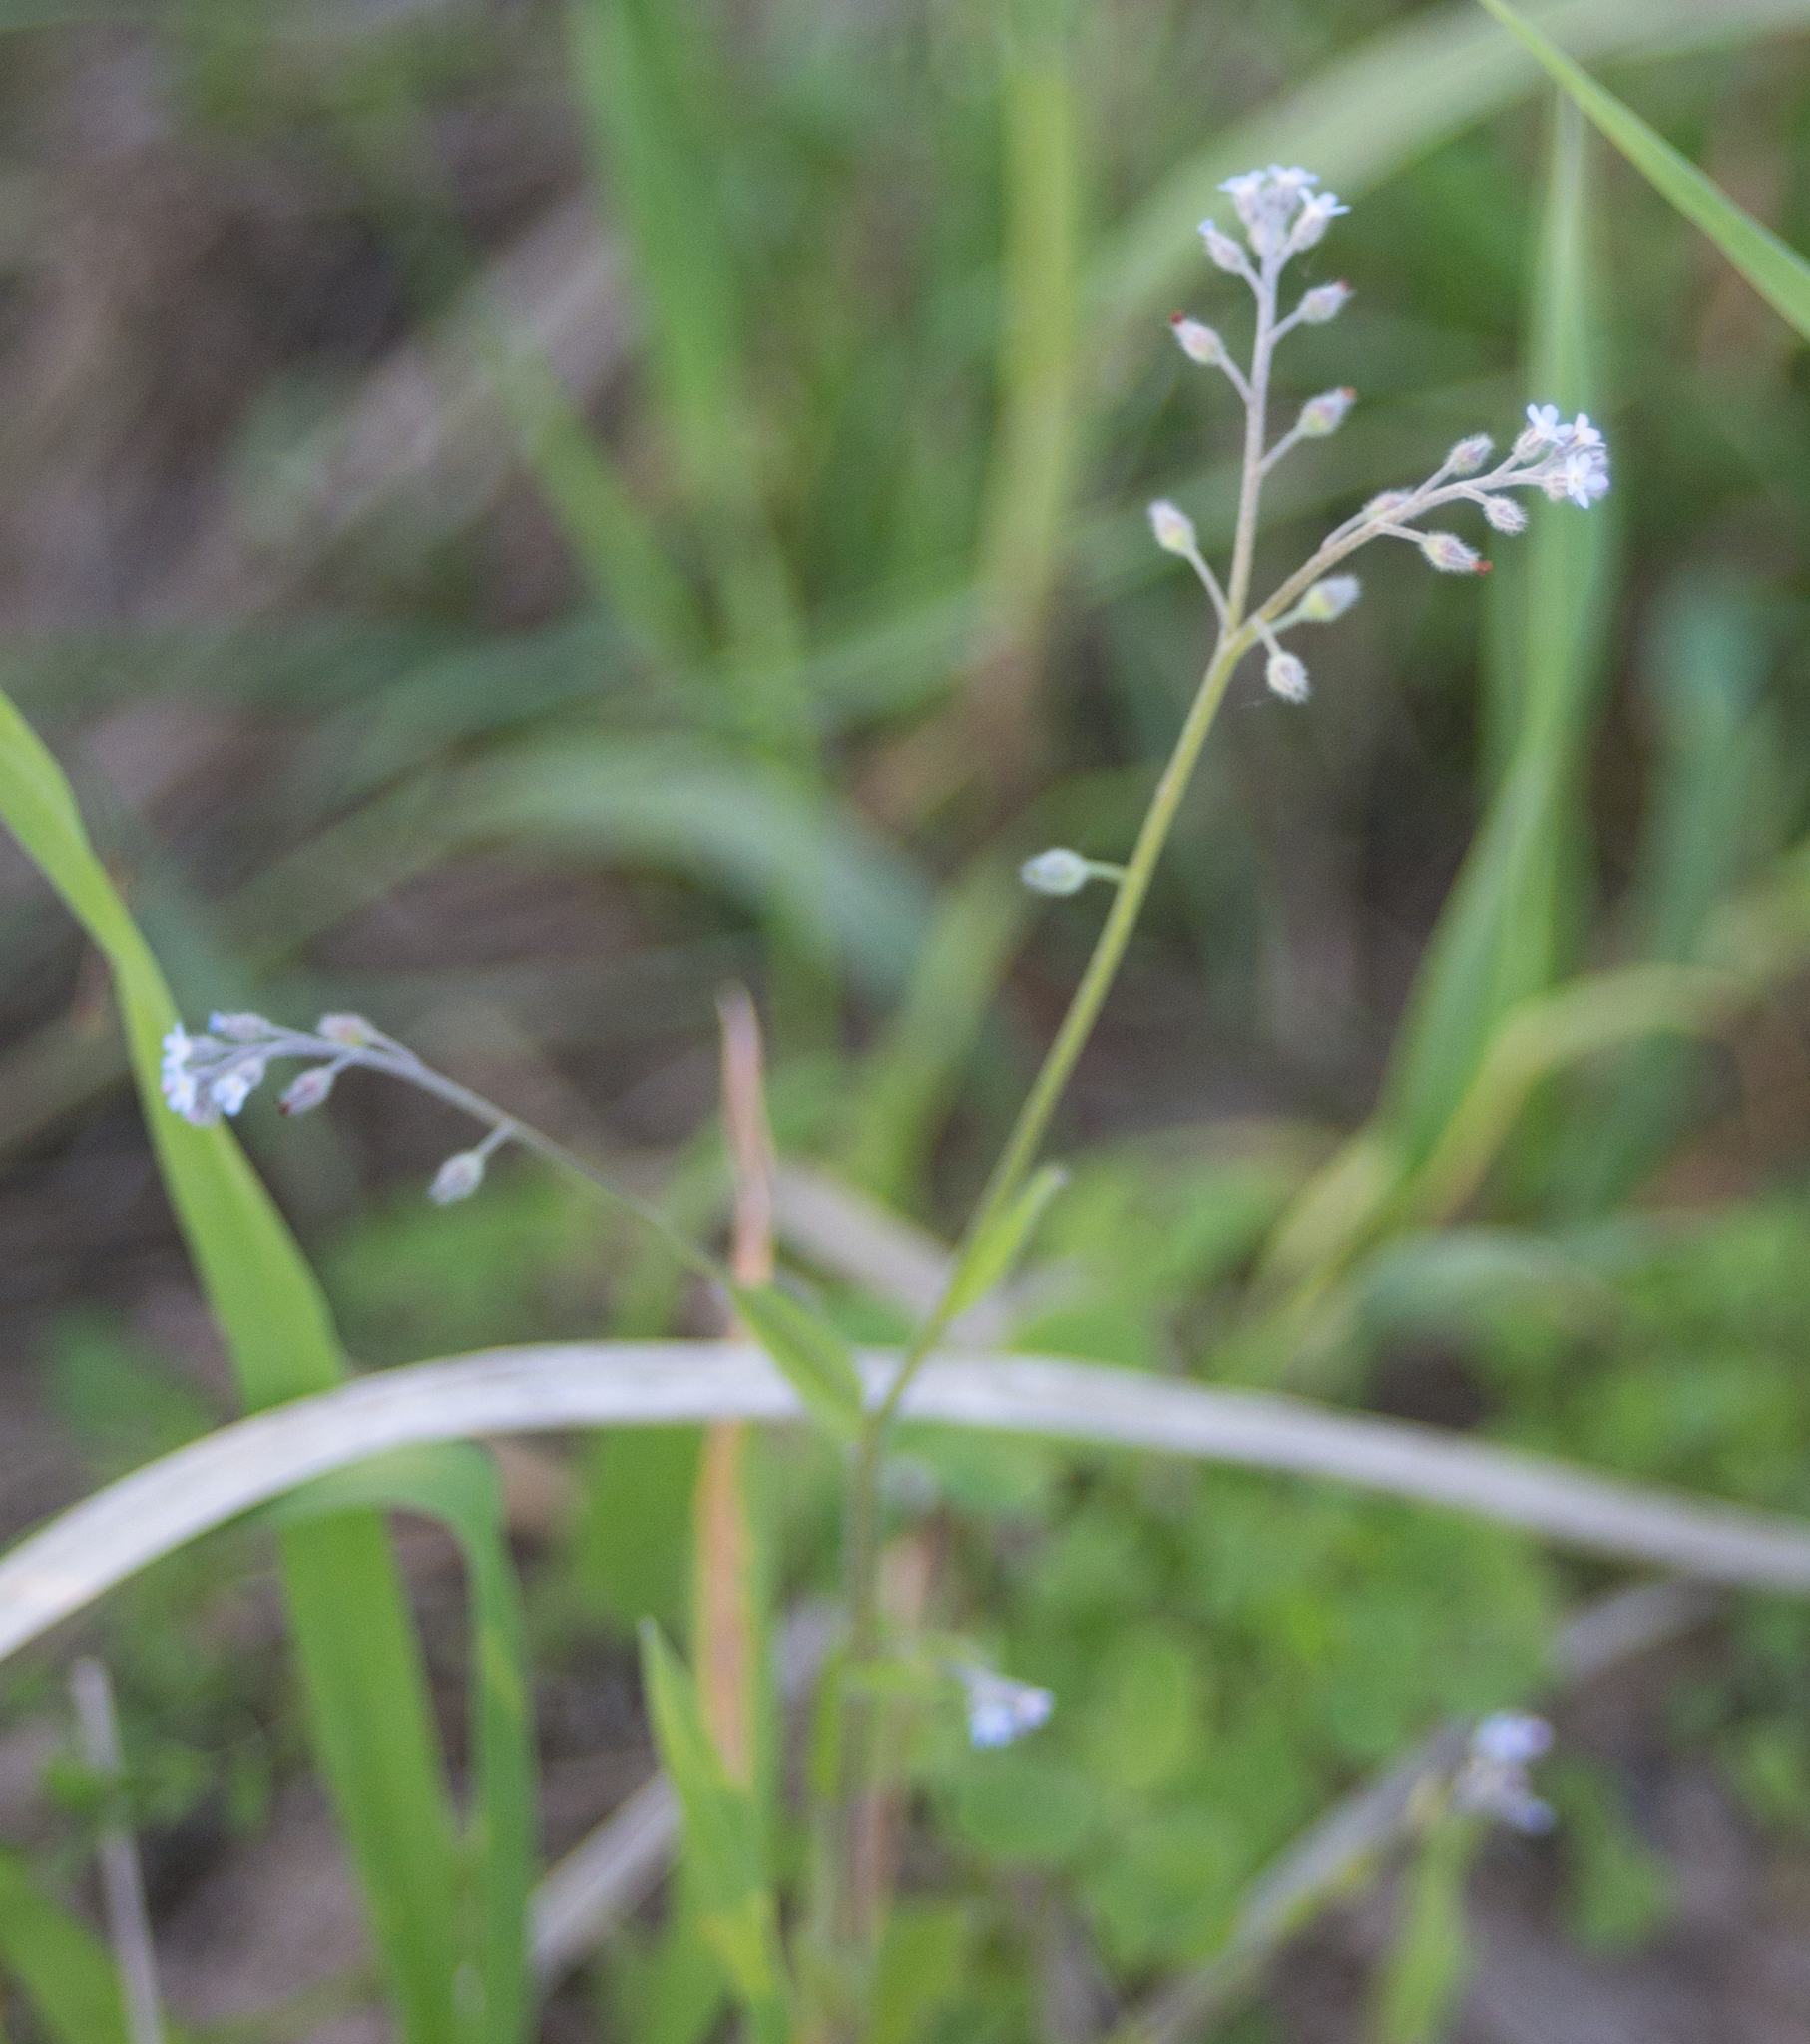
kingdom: Plantae
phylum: Tracheophyta
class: Magnoliopsida
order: Boraginales
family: Boraginaceae
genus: Myosotis
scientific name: Myosotis arvensis
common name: Field forget-me-not
